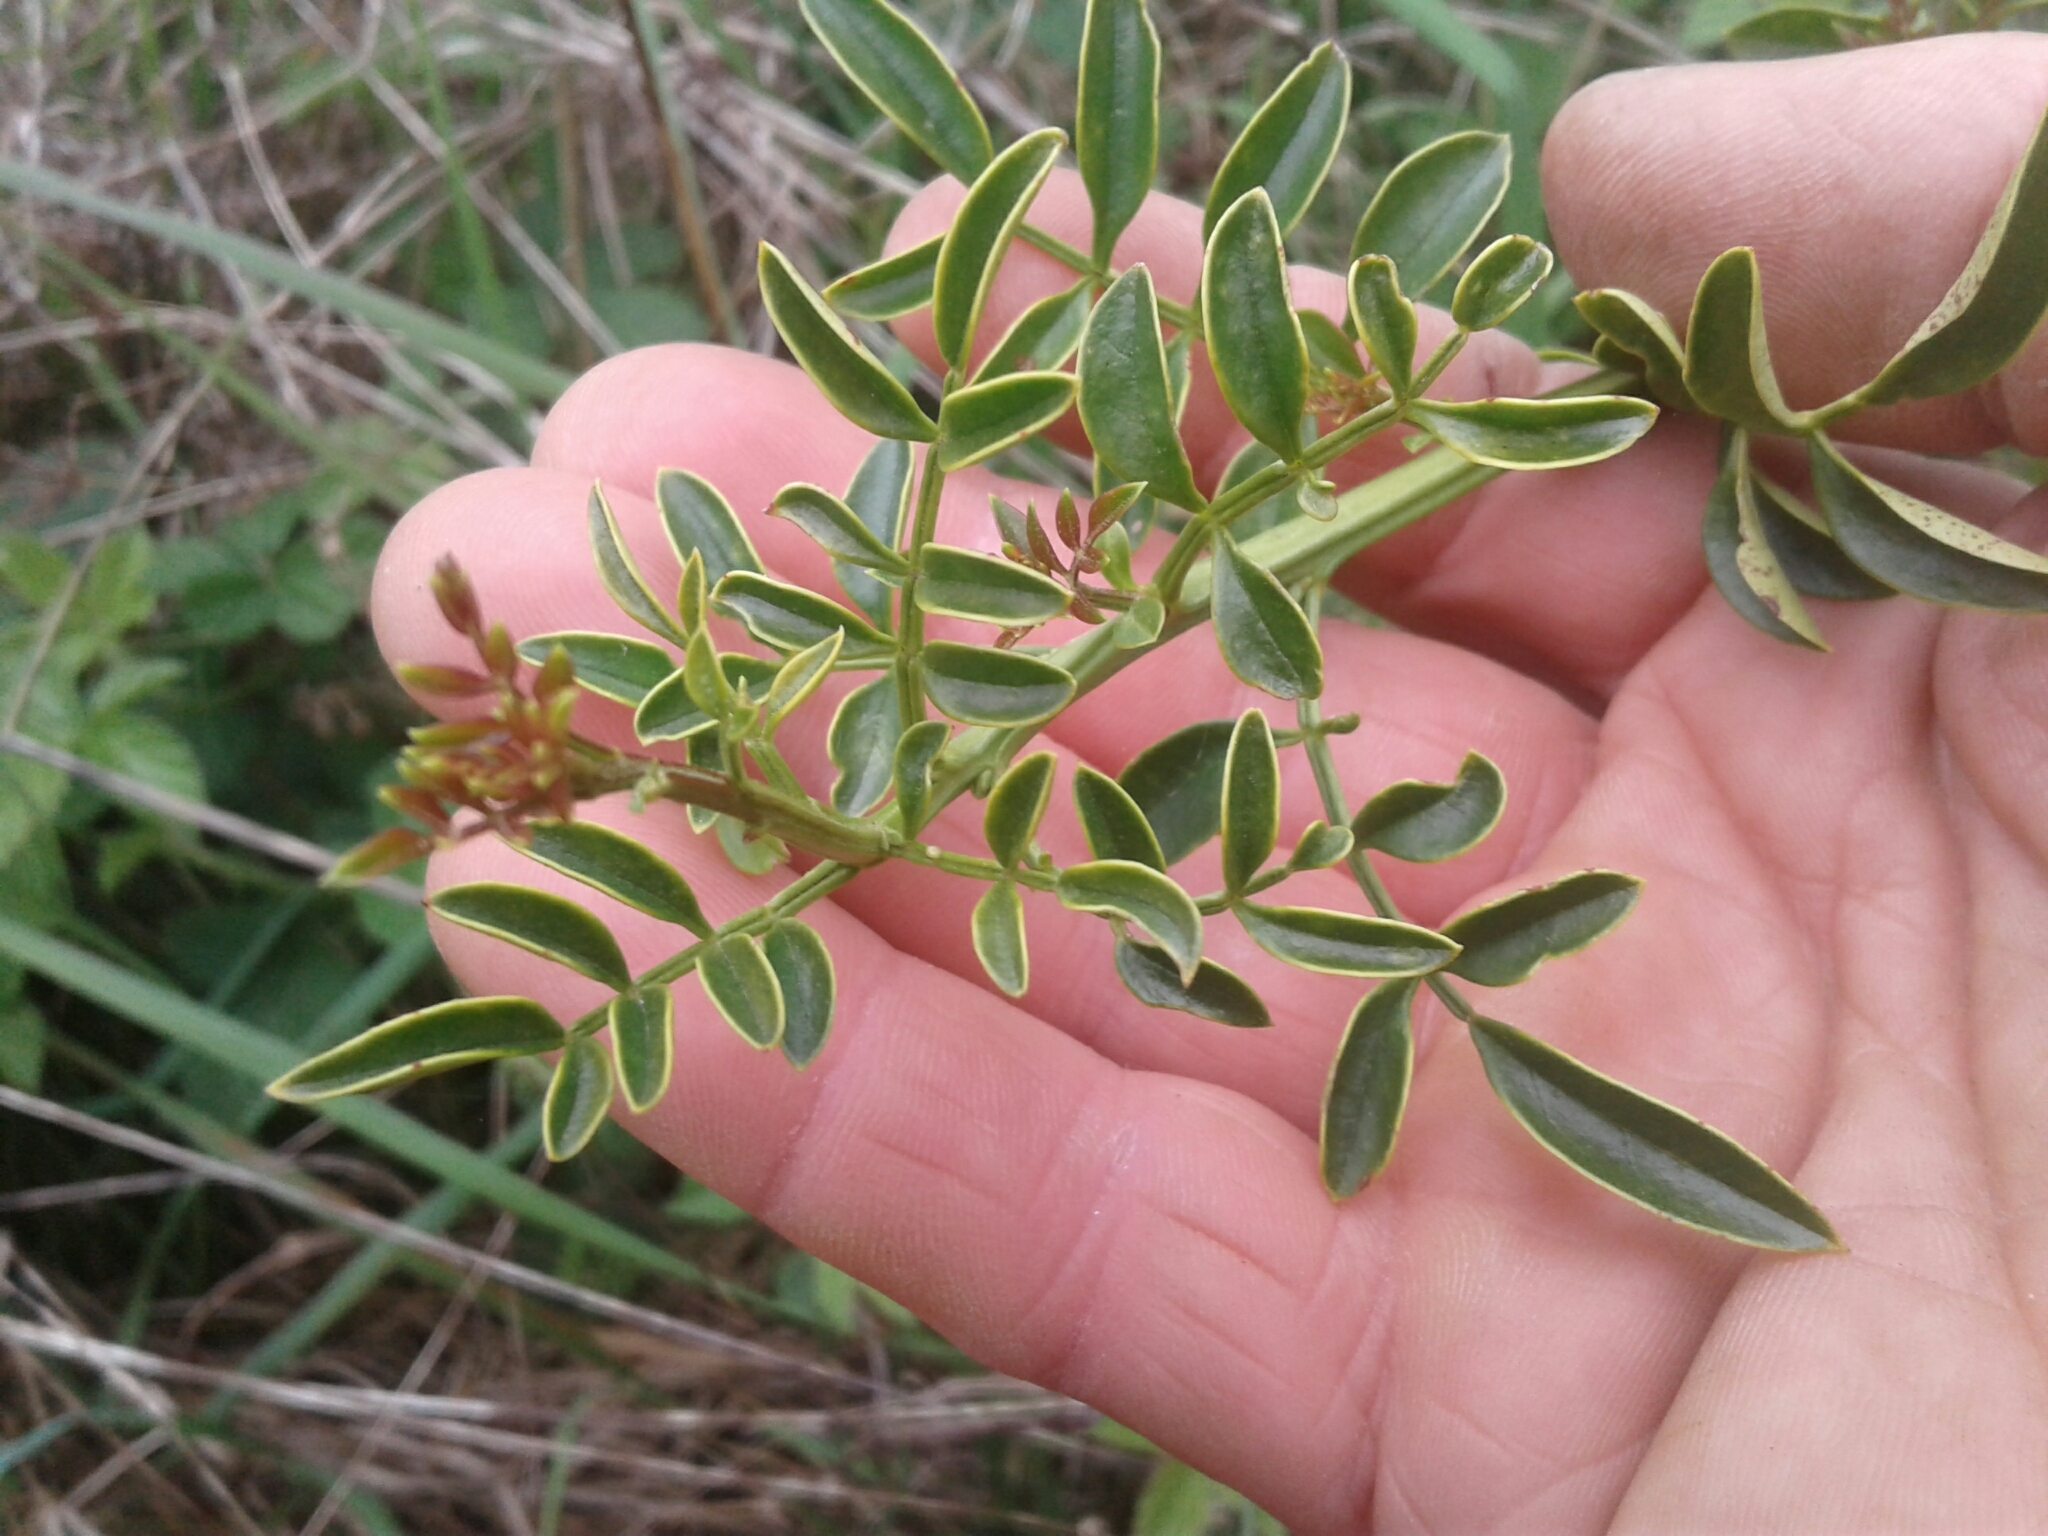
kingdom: Plantae
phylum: Tracheophyta
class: Magnoliopsida
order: Lamiales
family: Oleaceae
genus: Jasminum
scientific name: Jasminum polyanthum
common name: Pink jasmine
